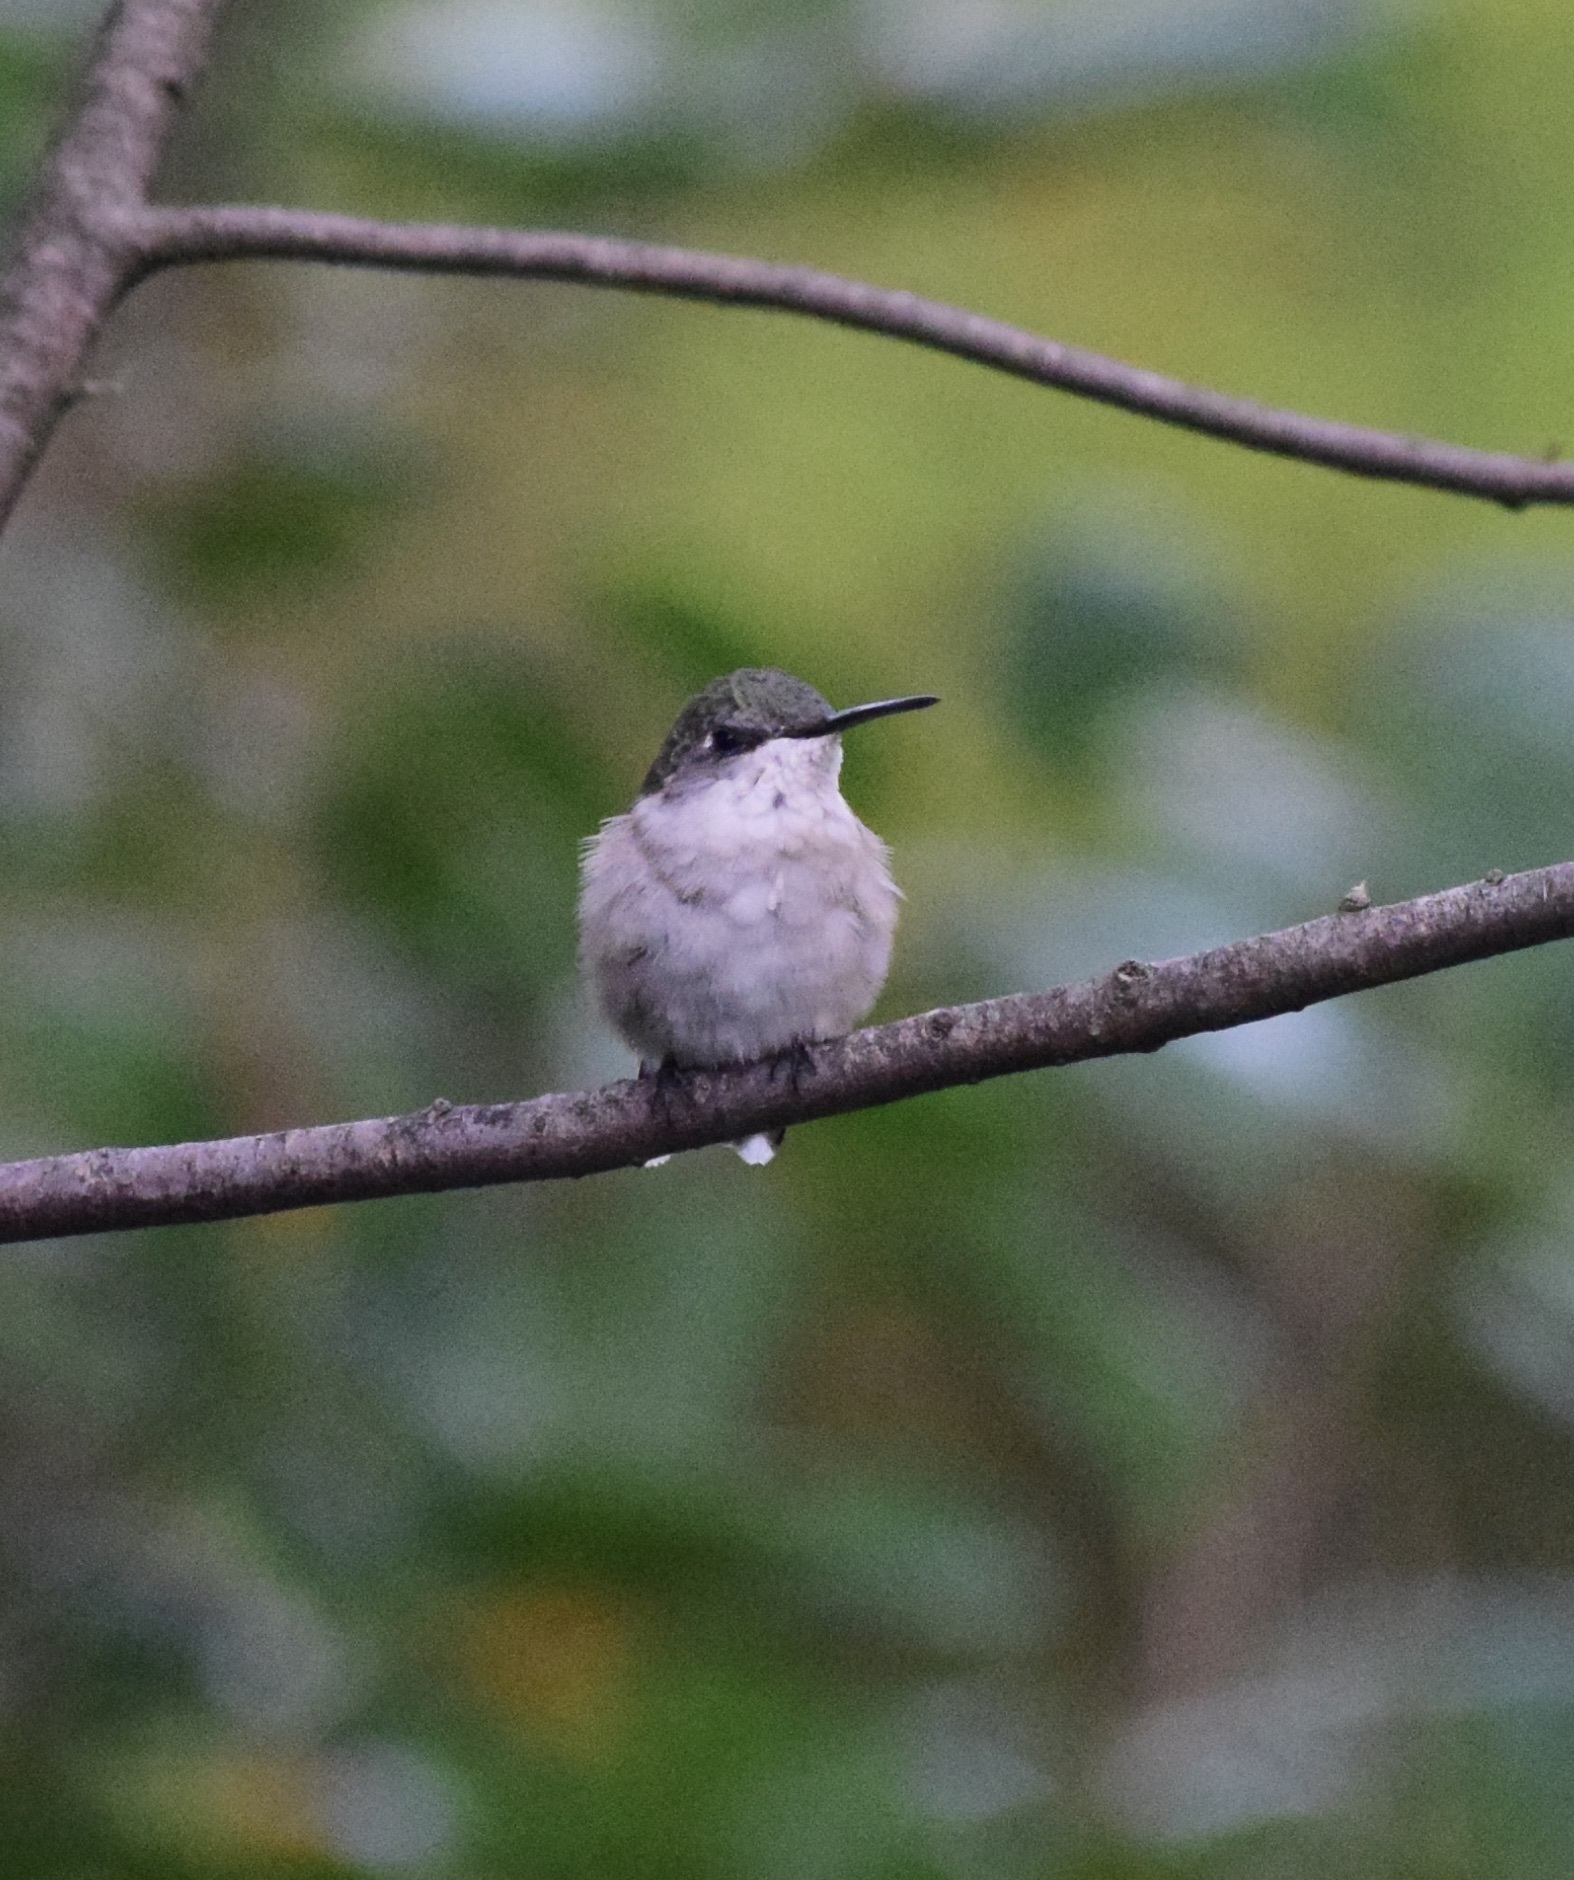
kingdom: Animalia
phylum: Chordata
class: Aves
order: Apodiformes
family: Trochilidae
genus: Archilochus
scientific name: Archilochus colubris
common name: Ruby-throated hummingbird
